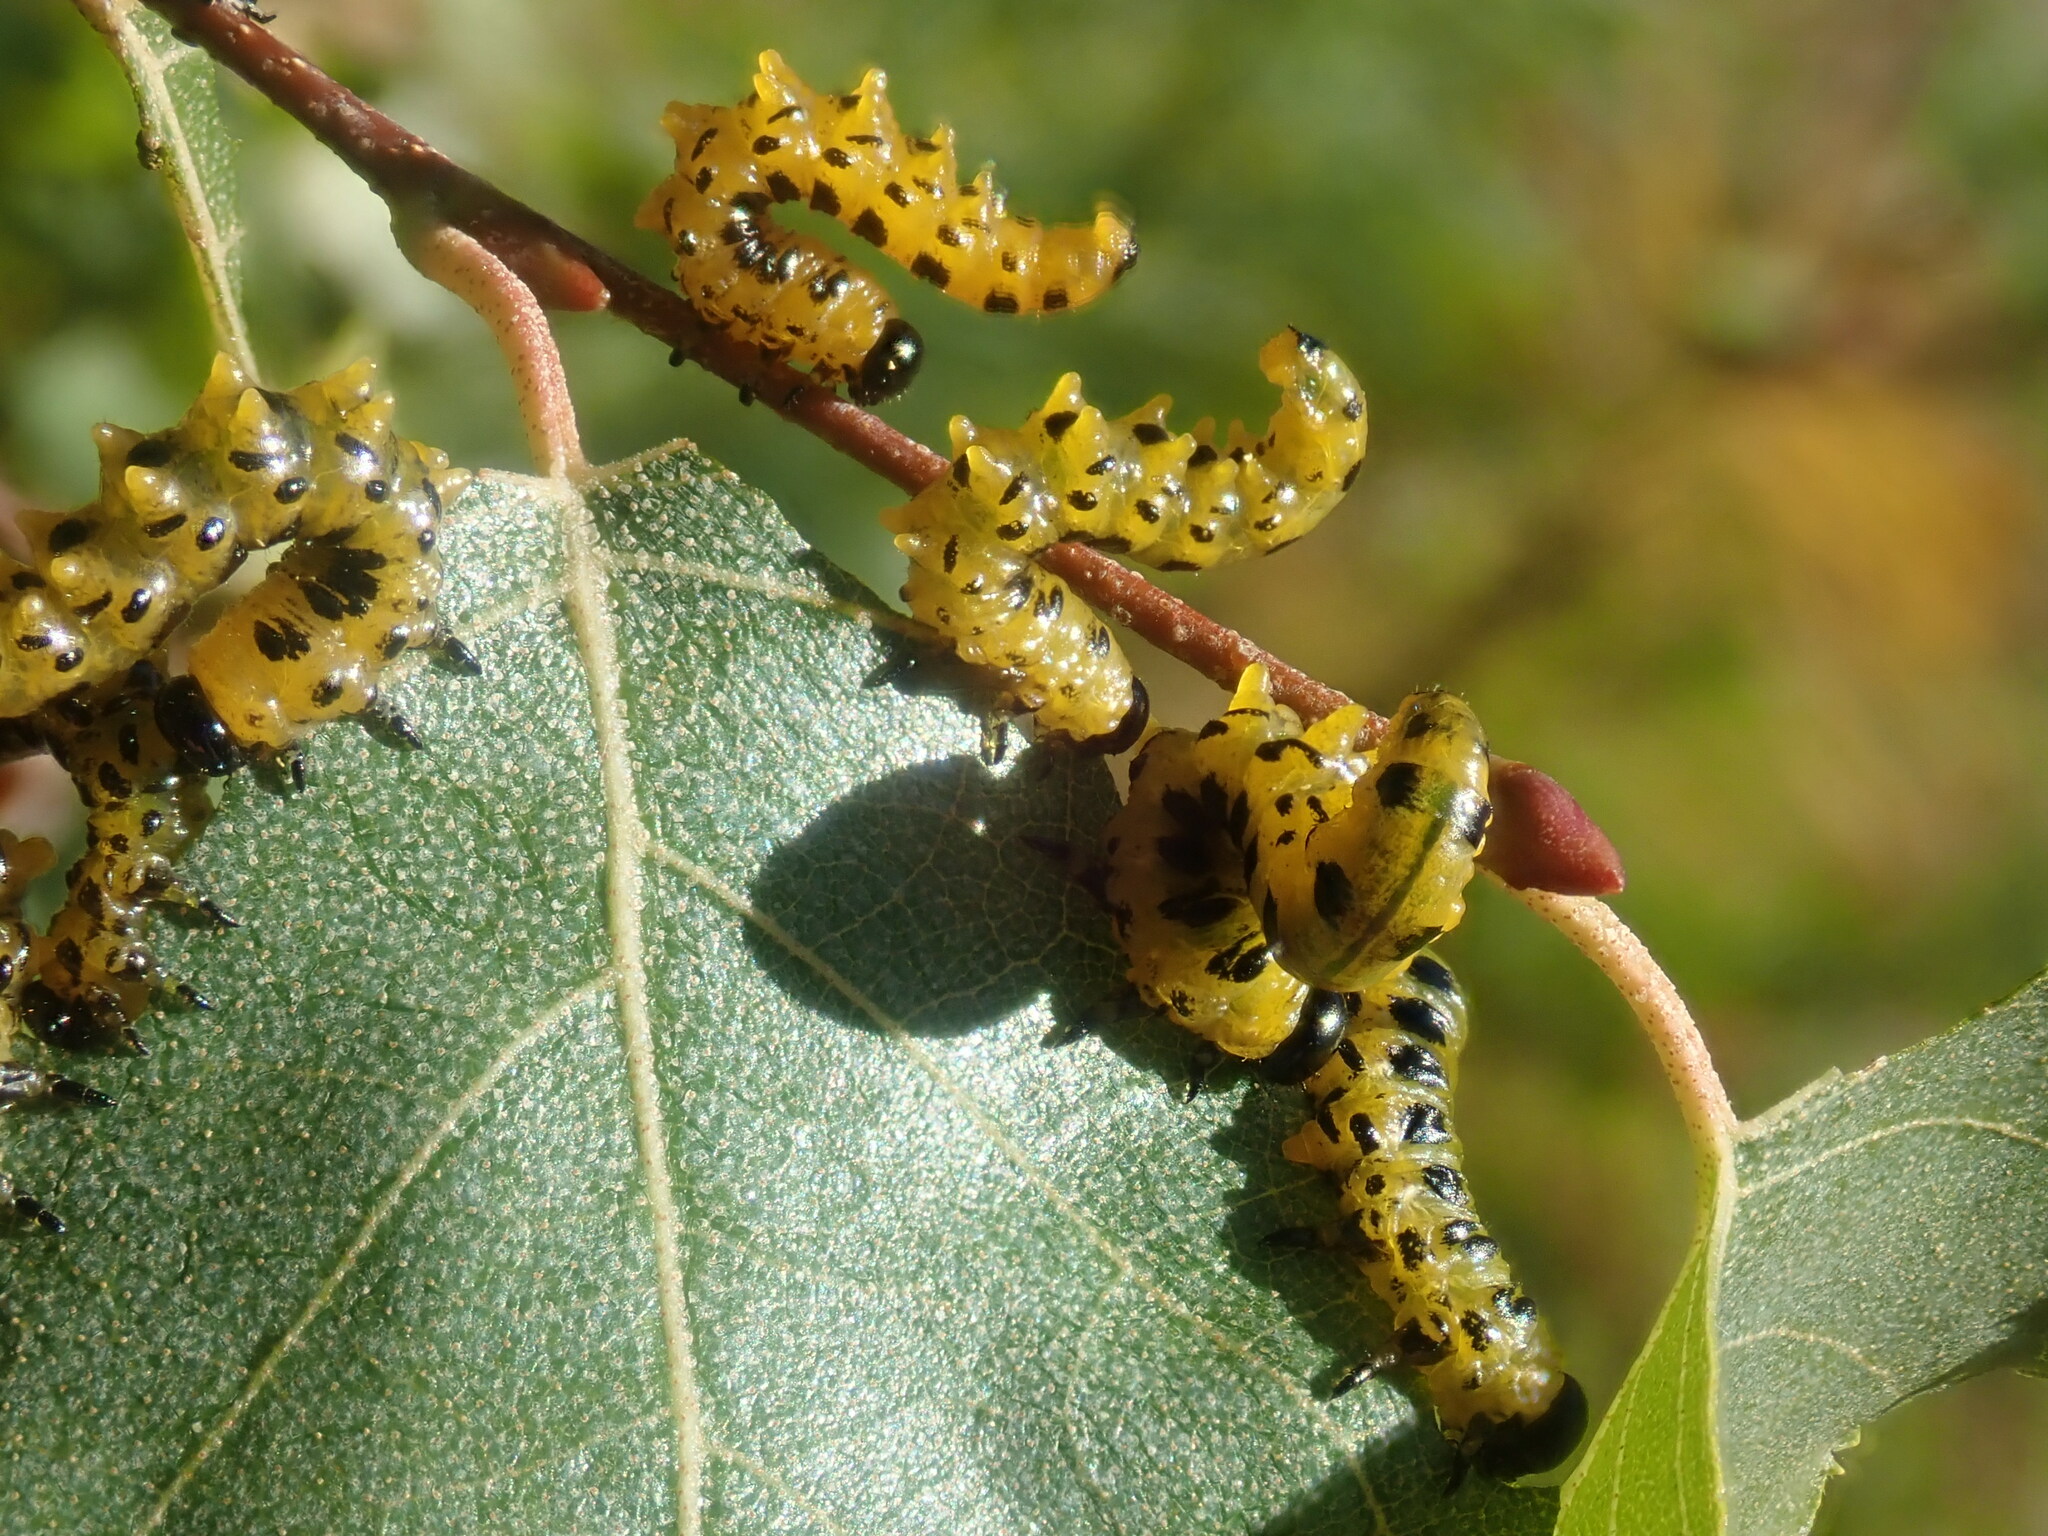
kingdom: Animalia
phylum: Arthropoda
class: Insecta
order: Hymenoptera
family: Tenthredinidae
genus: Nematus
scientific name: Nematus
